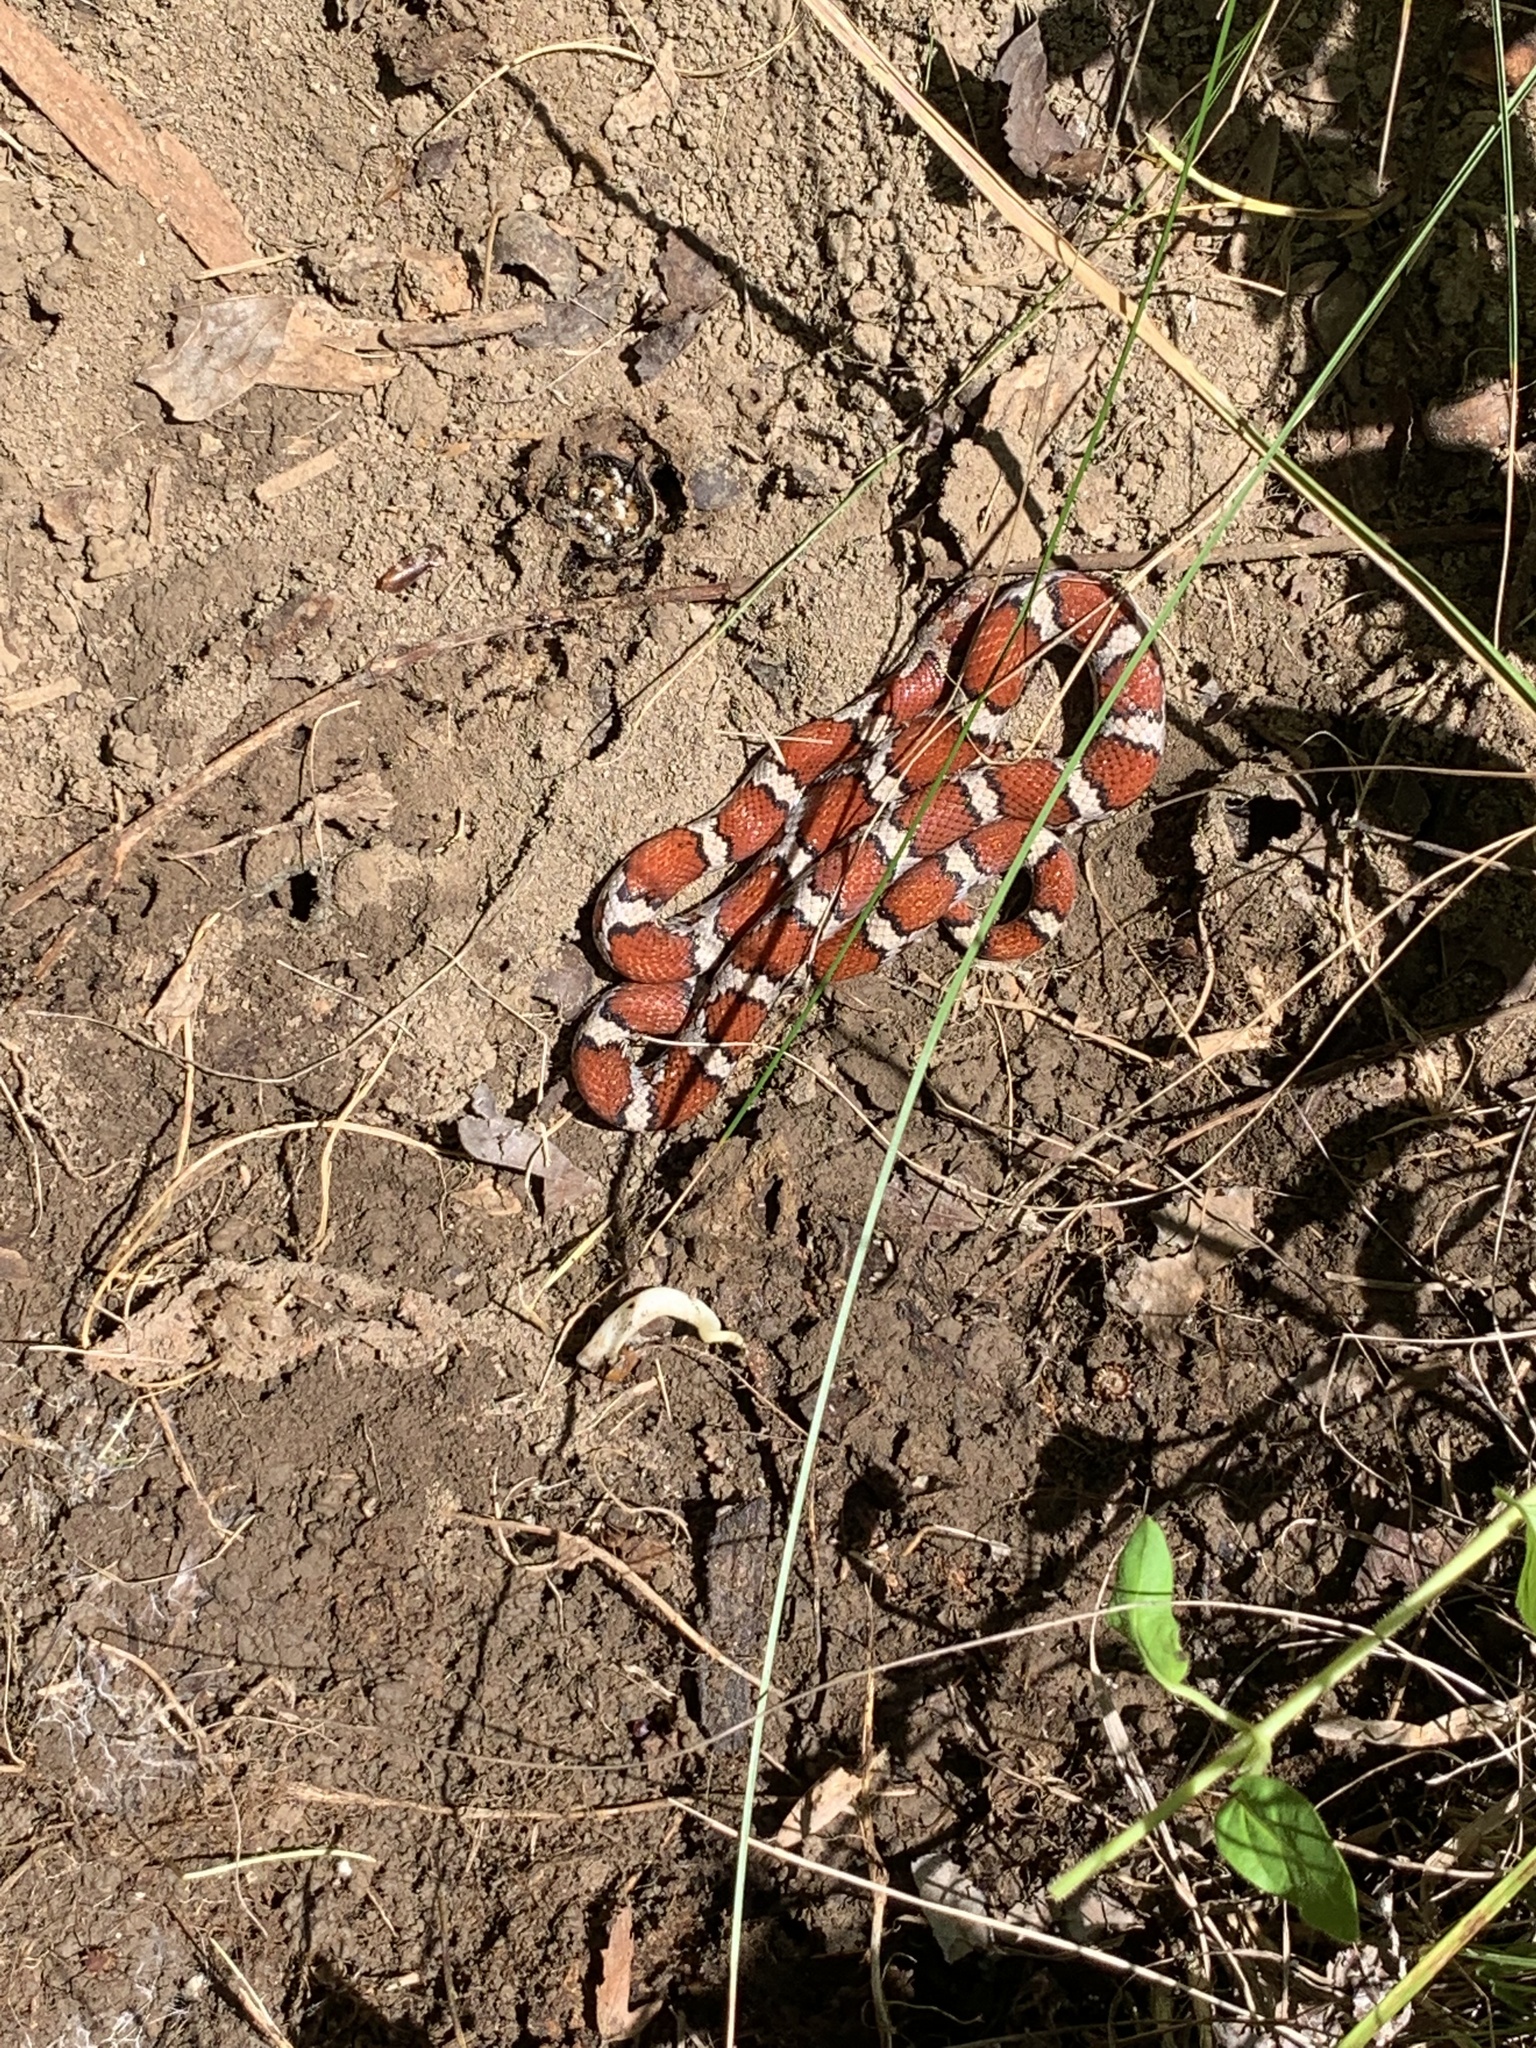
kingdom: Animalia
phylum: Chordata
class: Squamata
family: Colubridae
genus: Lampropeltis
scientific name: Lampropeltis triangulum
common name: Eastern milksnake
